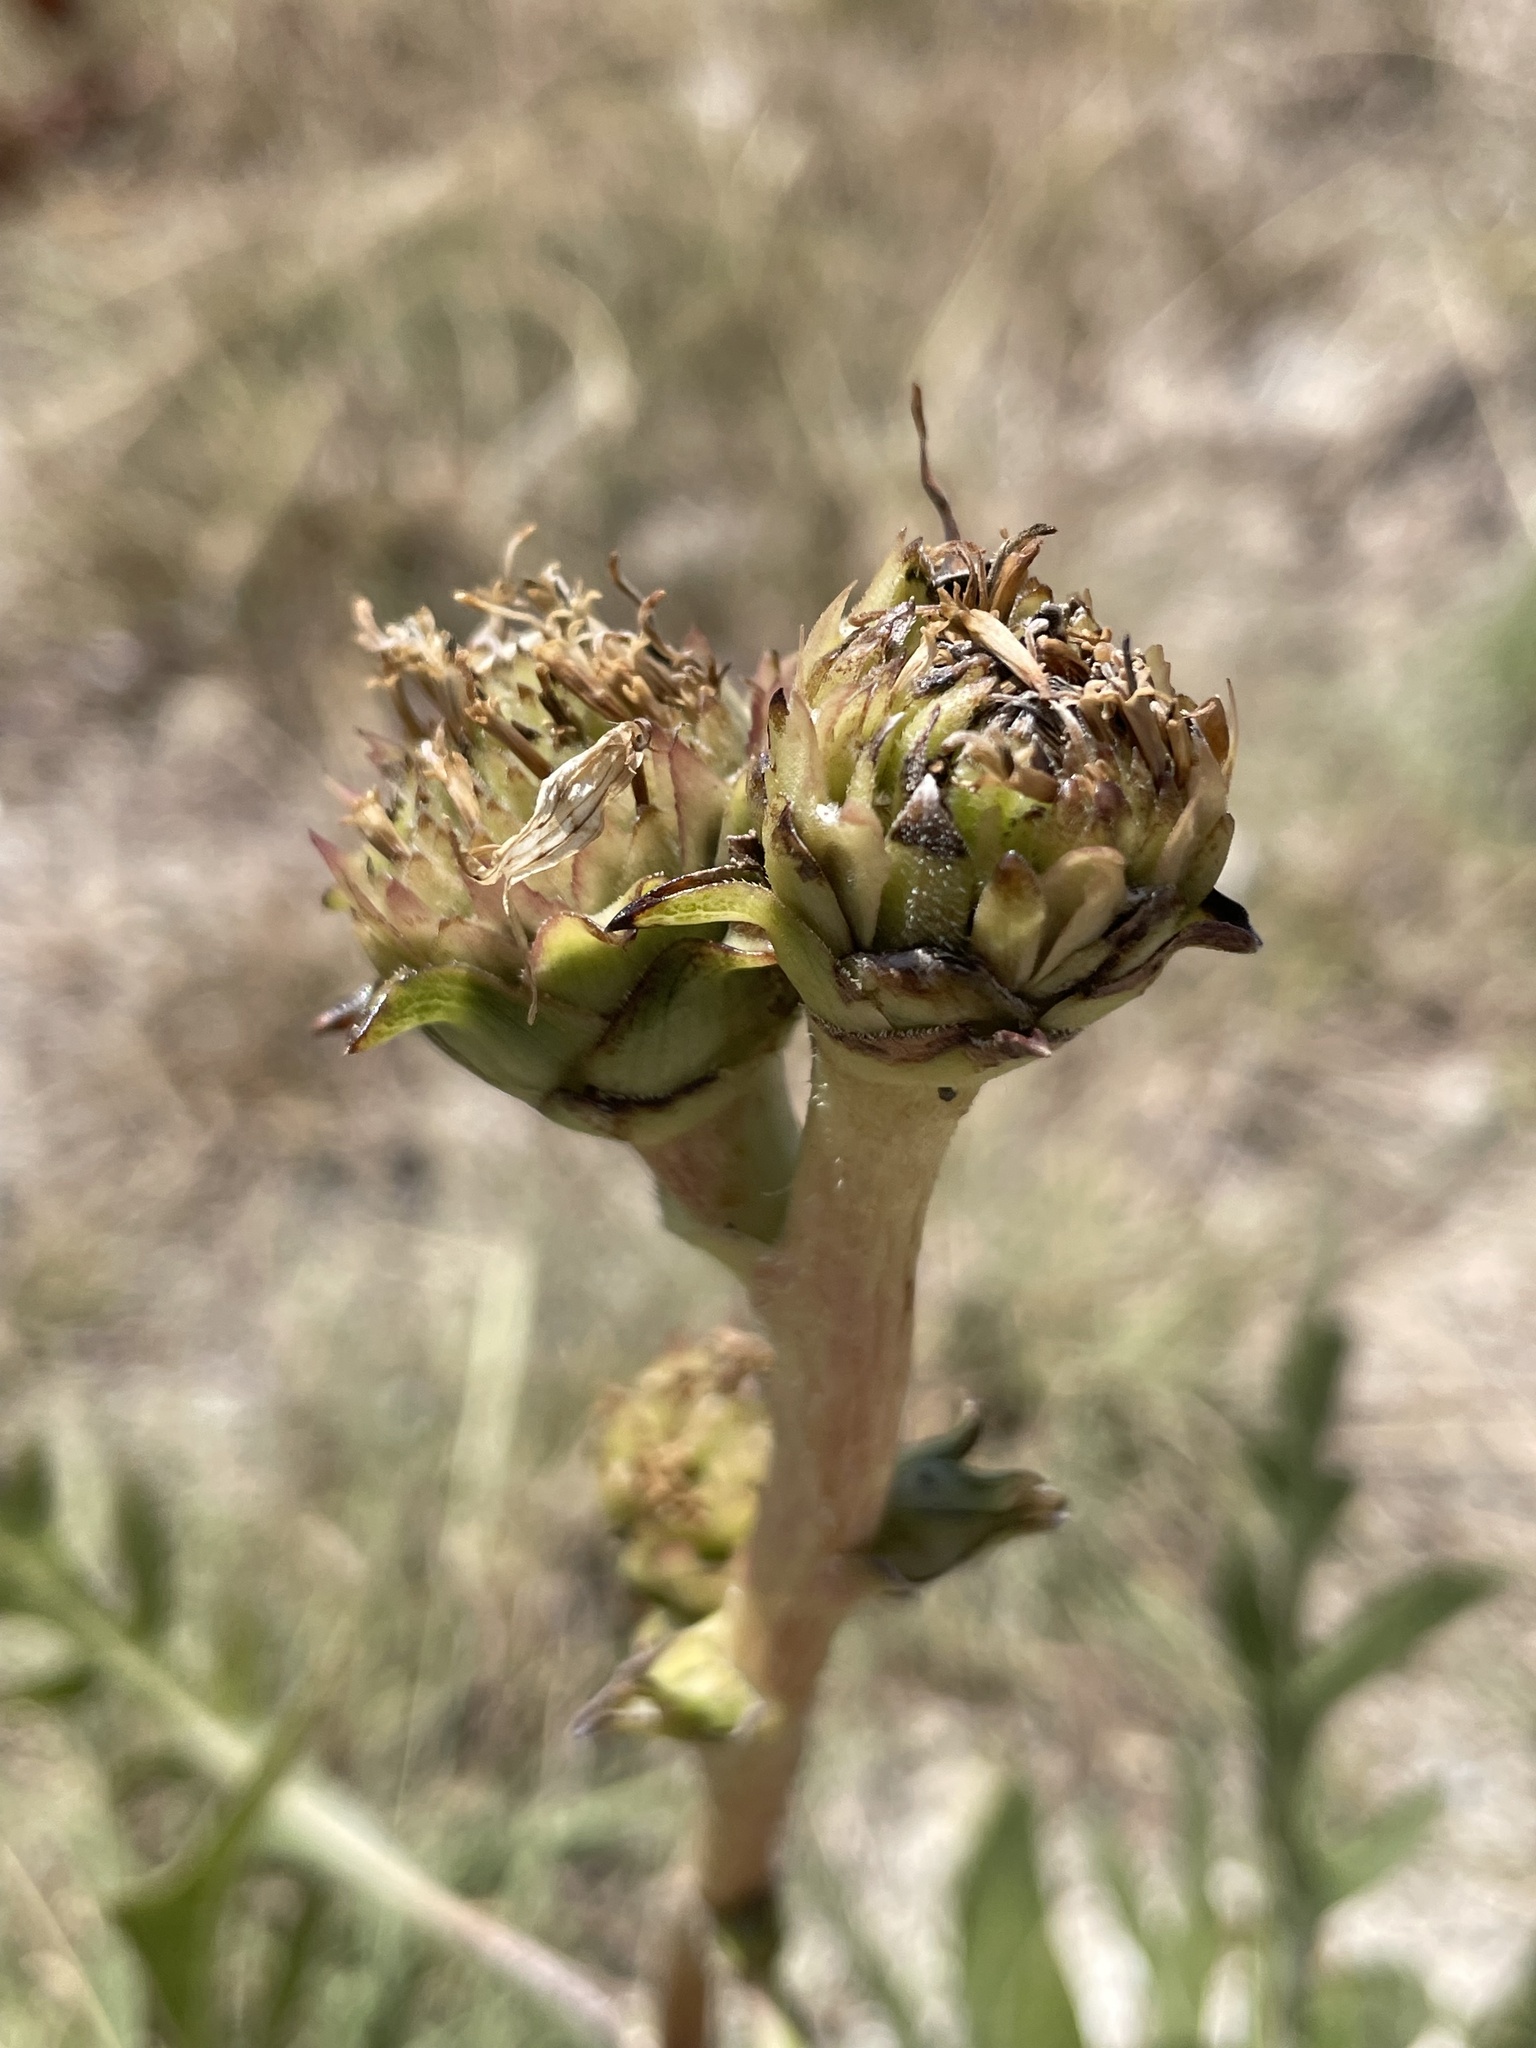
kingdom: Plantae
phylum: Tracheophyta
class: Magnoliopsida
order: Asterales
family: Asteraceae
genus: Silphium
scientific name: Silphium albiflorum
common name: White rosinweed
